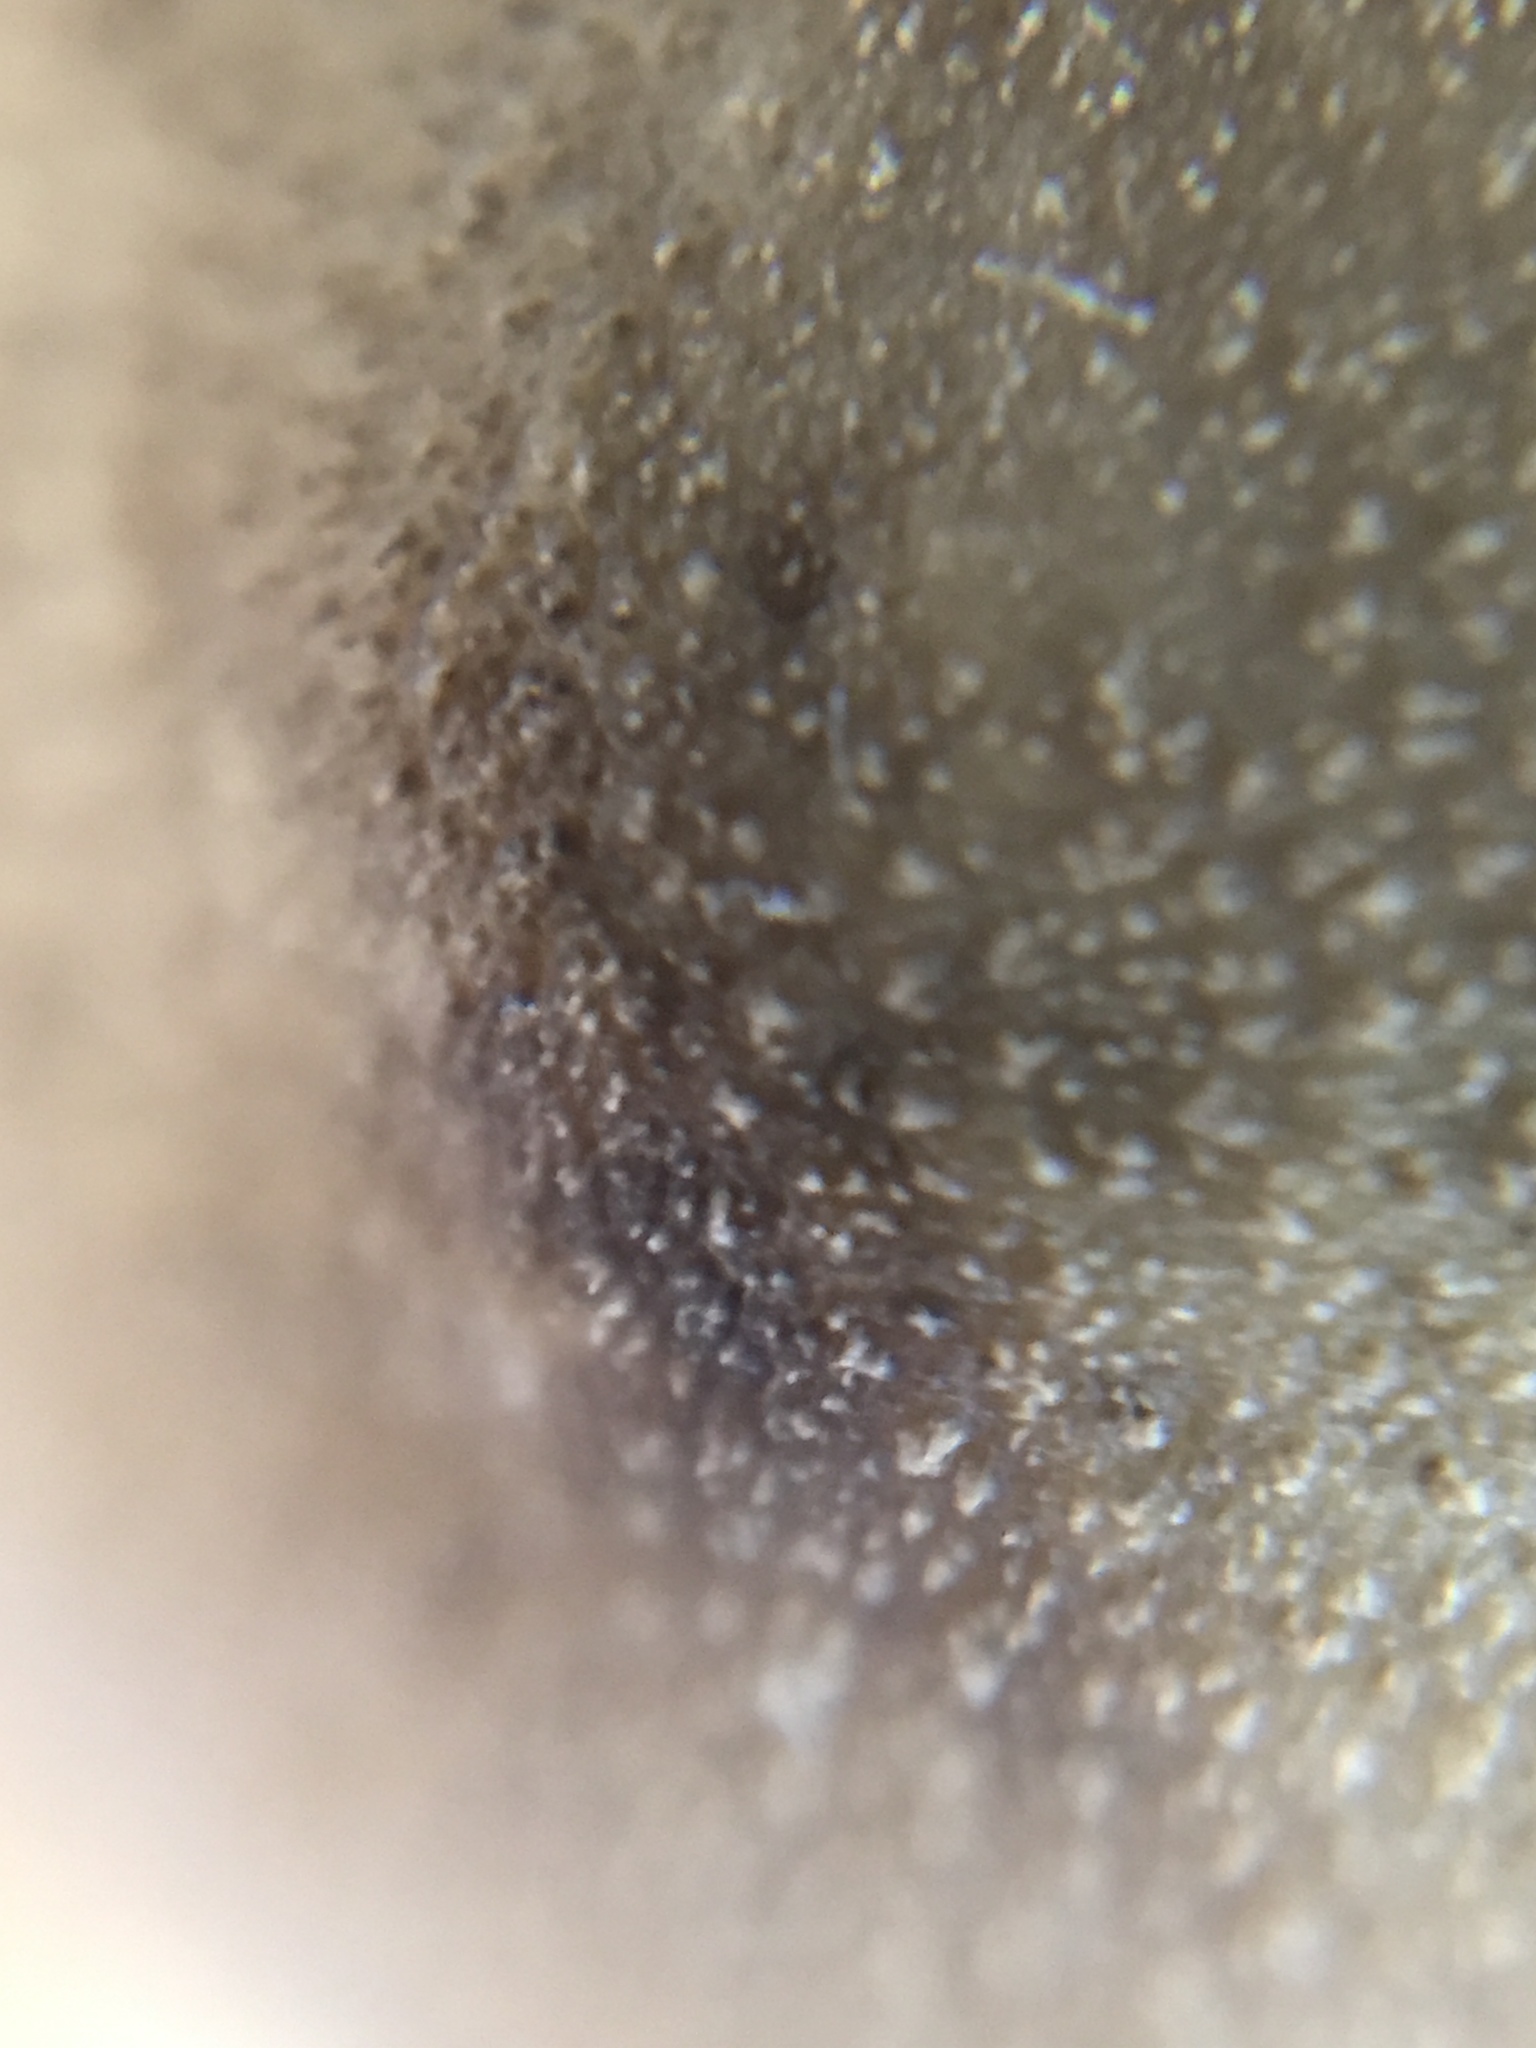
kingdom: Fungi
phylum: Basidiomycota
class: Agaricomycetes
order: Agaricales
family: Lycoperdaceae
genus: Apioperdon
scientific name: Apioperdon pyriforme
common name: Pear-shaped puffball
